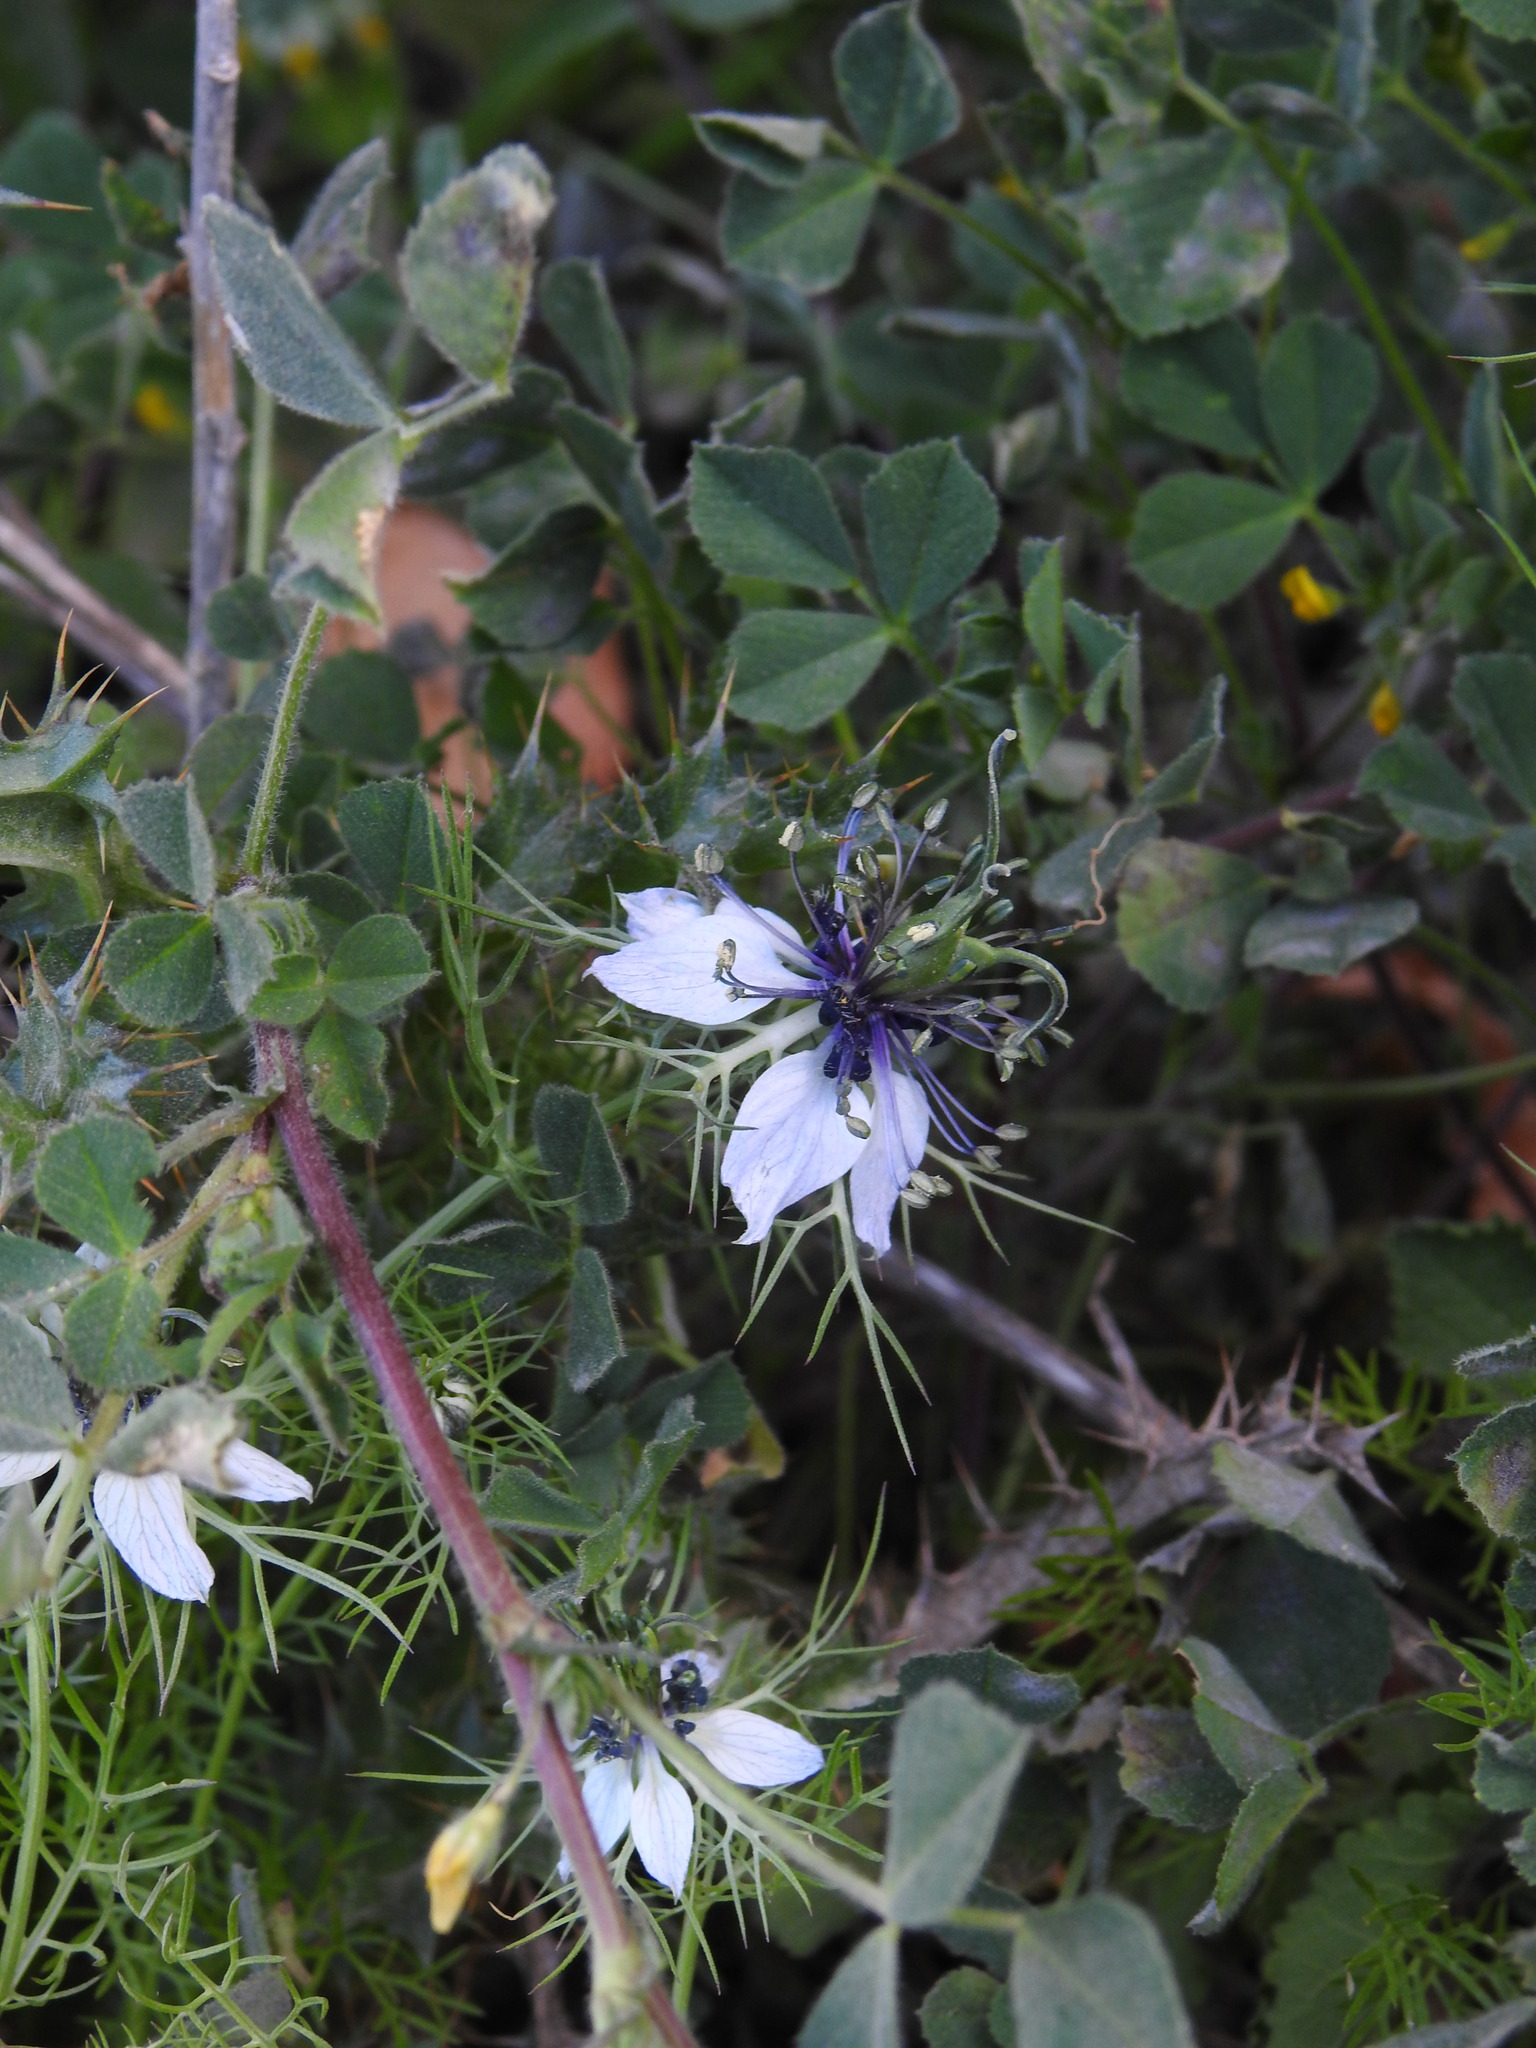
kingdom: Plantae
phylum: Tracheophyta
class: Magnoliopsida
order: Ranunculales
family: Ranunculaceae
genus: Nigella
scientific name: Nigella damascena
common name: Love-in-a-mist
